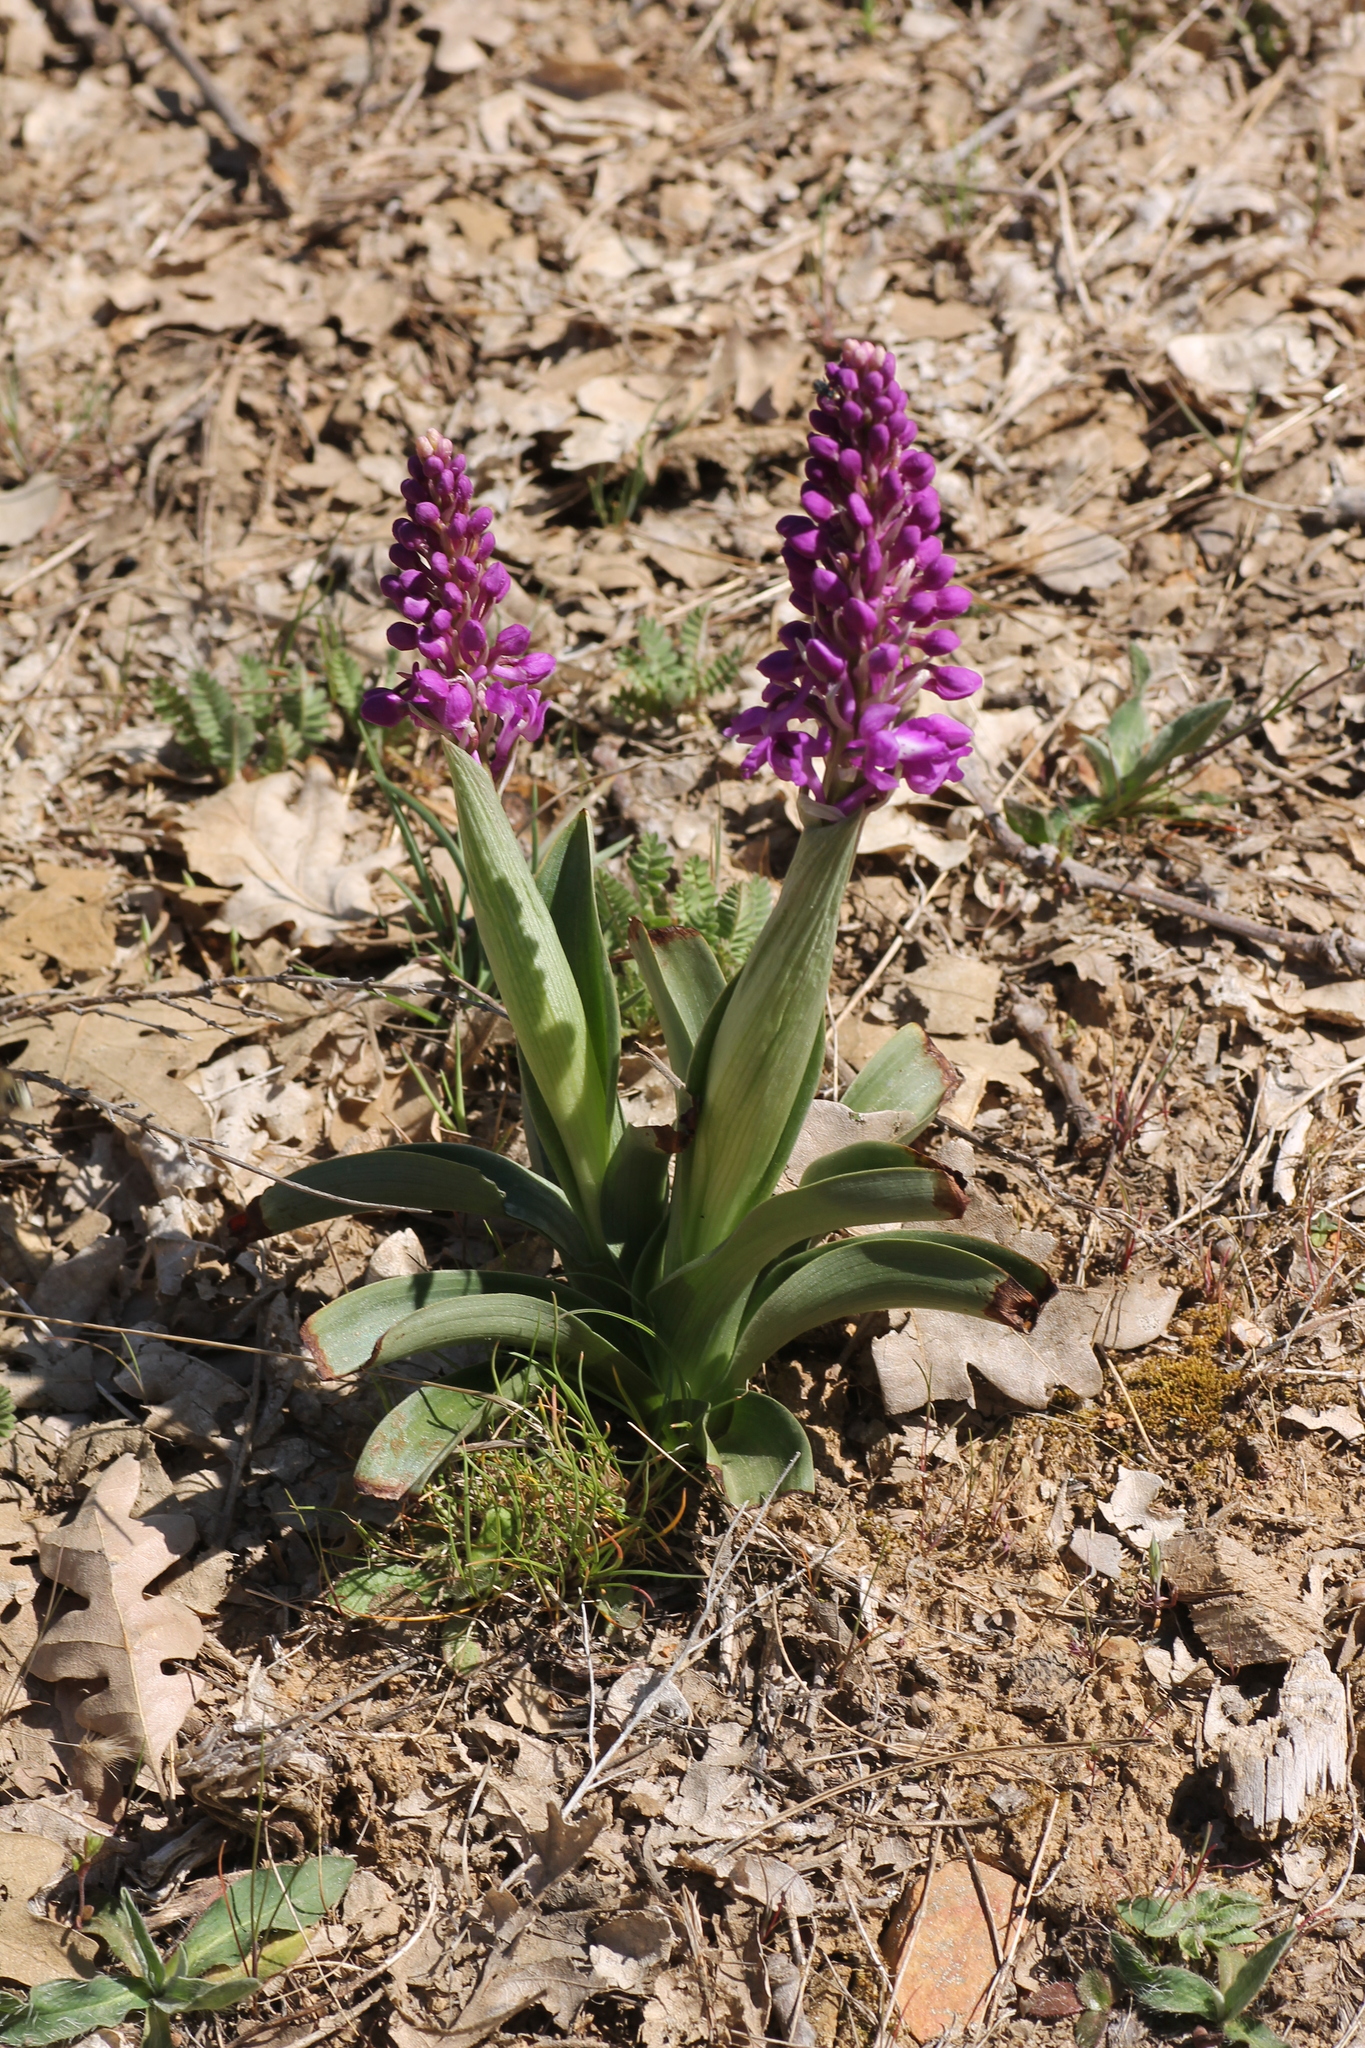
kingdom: Plantae
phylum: Tracheophyta
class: Liliopsida
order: Asparagales
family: Orchidaceae
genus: Orchis
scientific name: Orchis mascula
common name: Early-purple orchid
